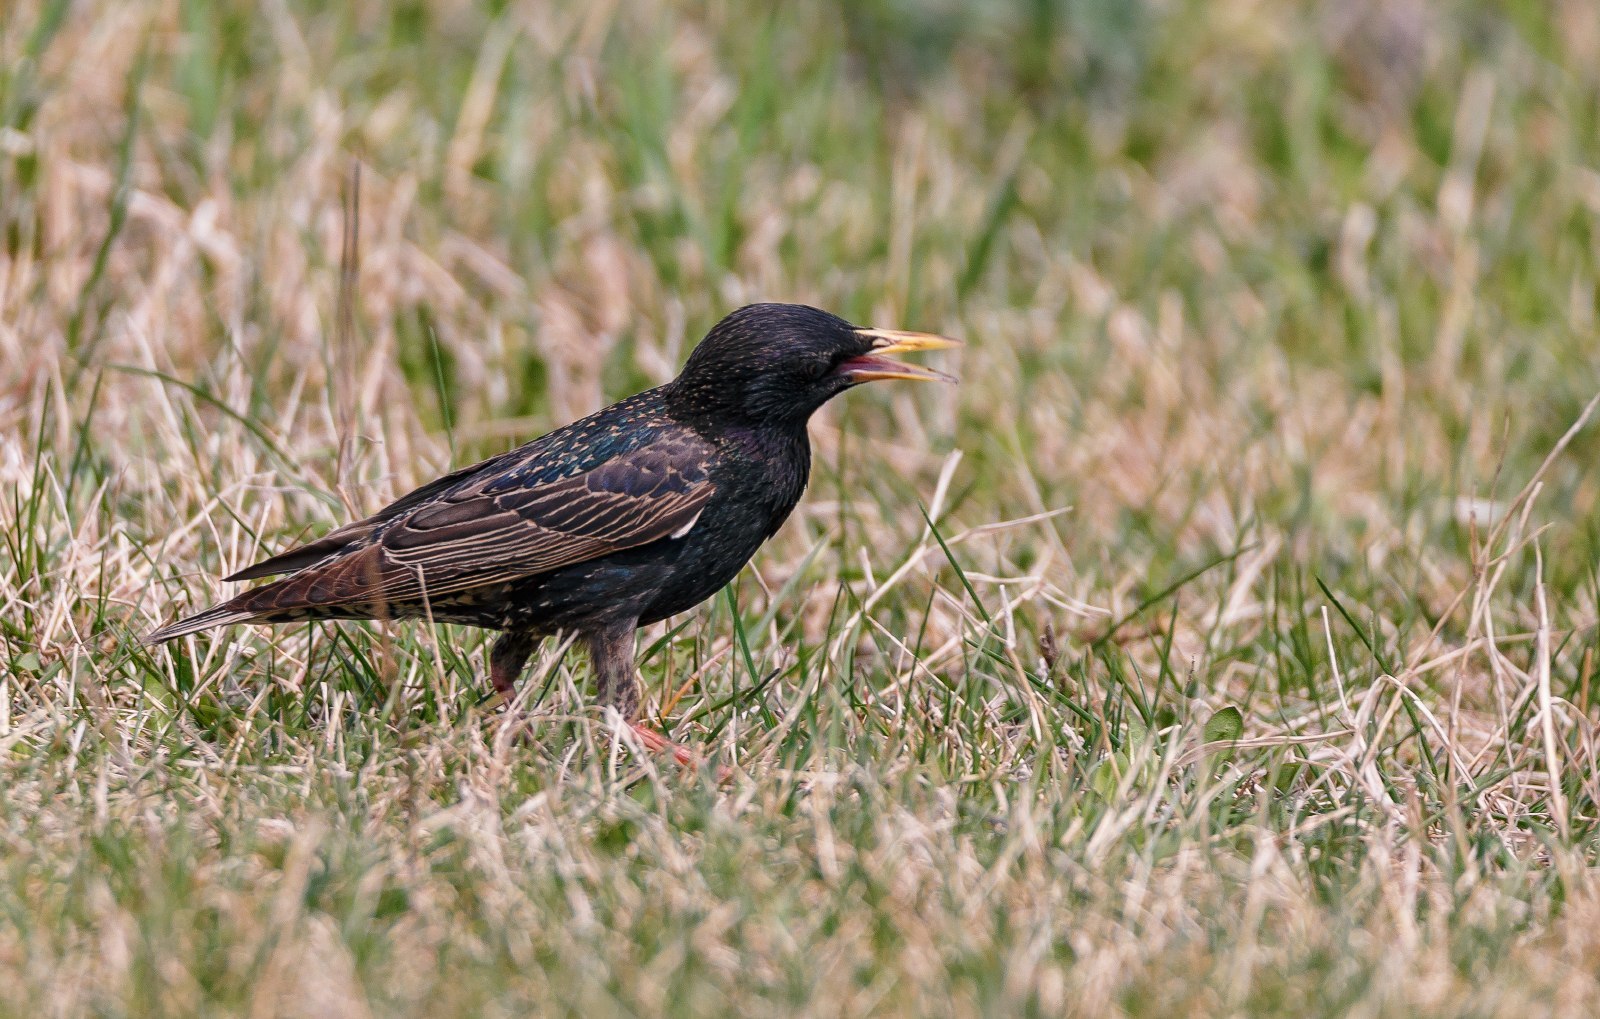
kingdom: Animalia
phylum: Chordata
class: Aves
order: Passeriformes
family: Sturnidae
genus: Sturnus
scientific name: Sturnus vulgaris
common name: Common starling
